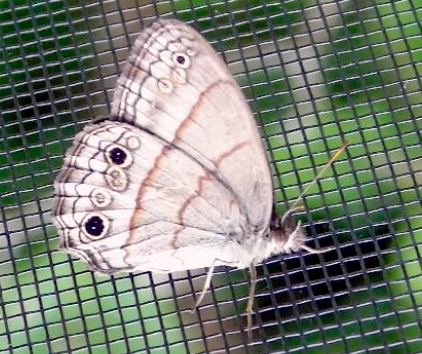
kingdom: Animalia
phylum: Arthropoda
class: Insecta
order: Lepidoptera
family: Nymphalidae
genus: Euptychia
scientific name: Euptychia
